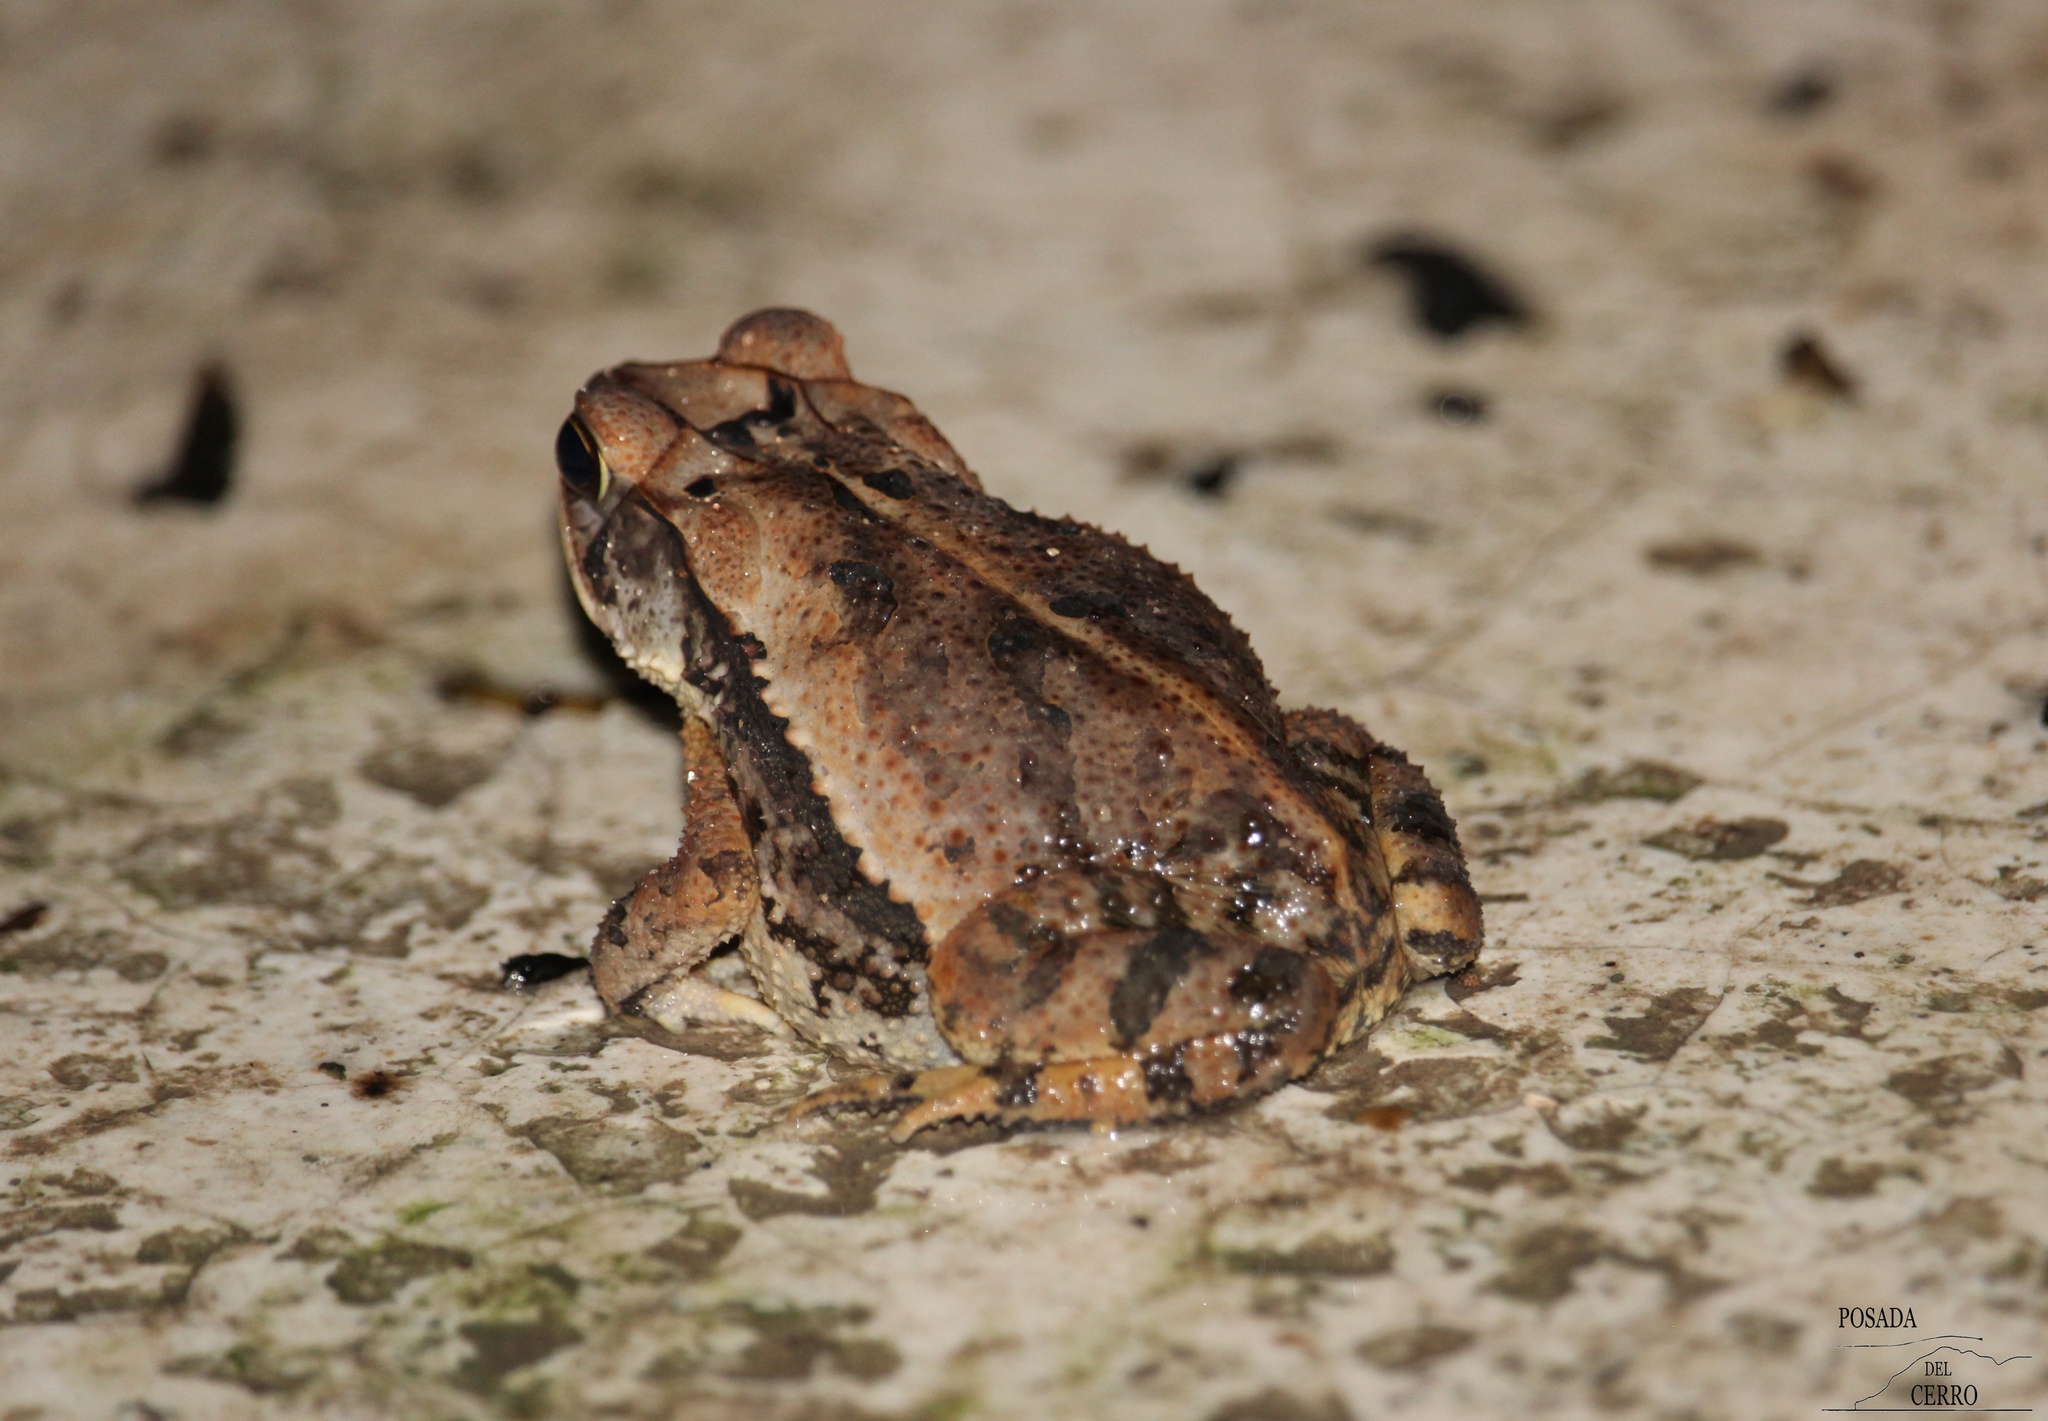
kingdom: Animalia
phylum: Chordata
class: Amphibia
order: Anura
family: Bufonidae
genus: Incilius
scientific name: Incilius valliceps
